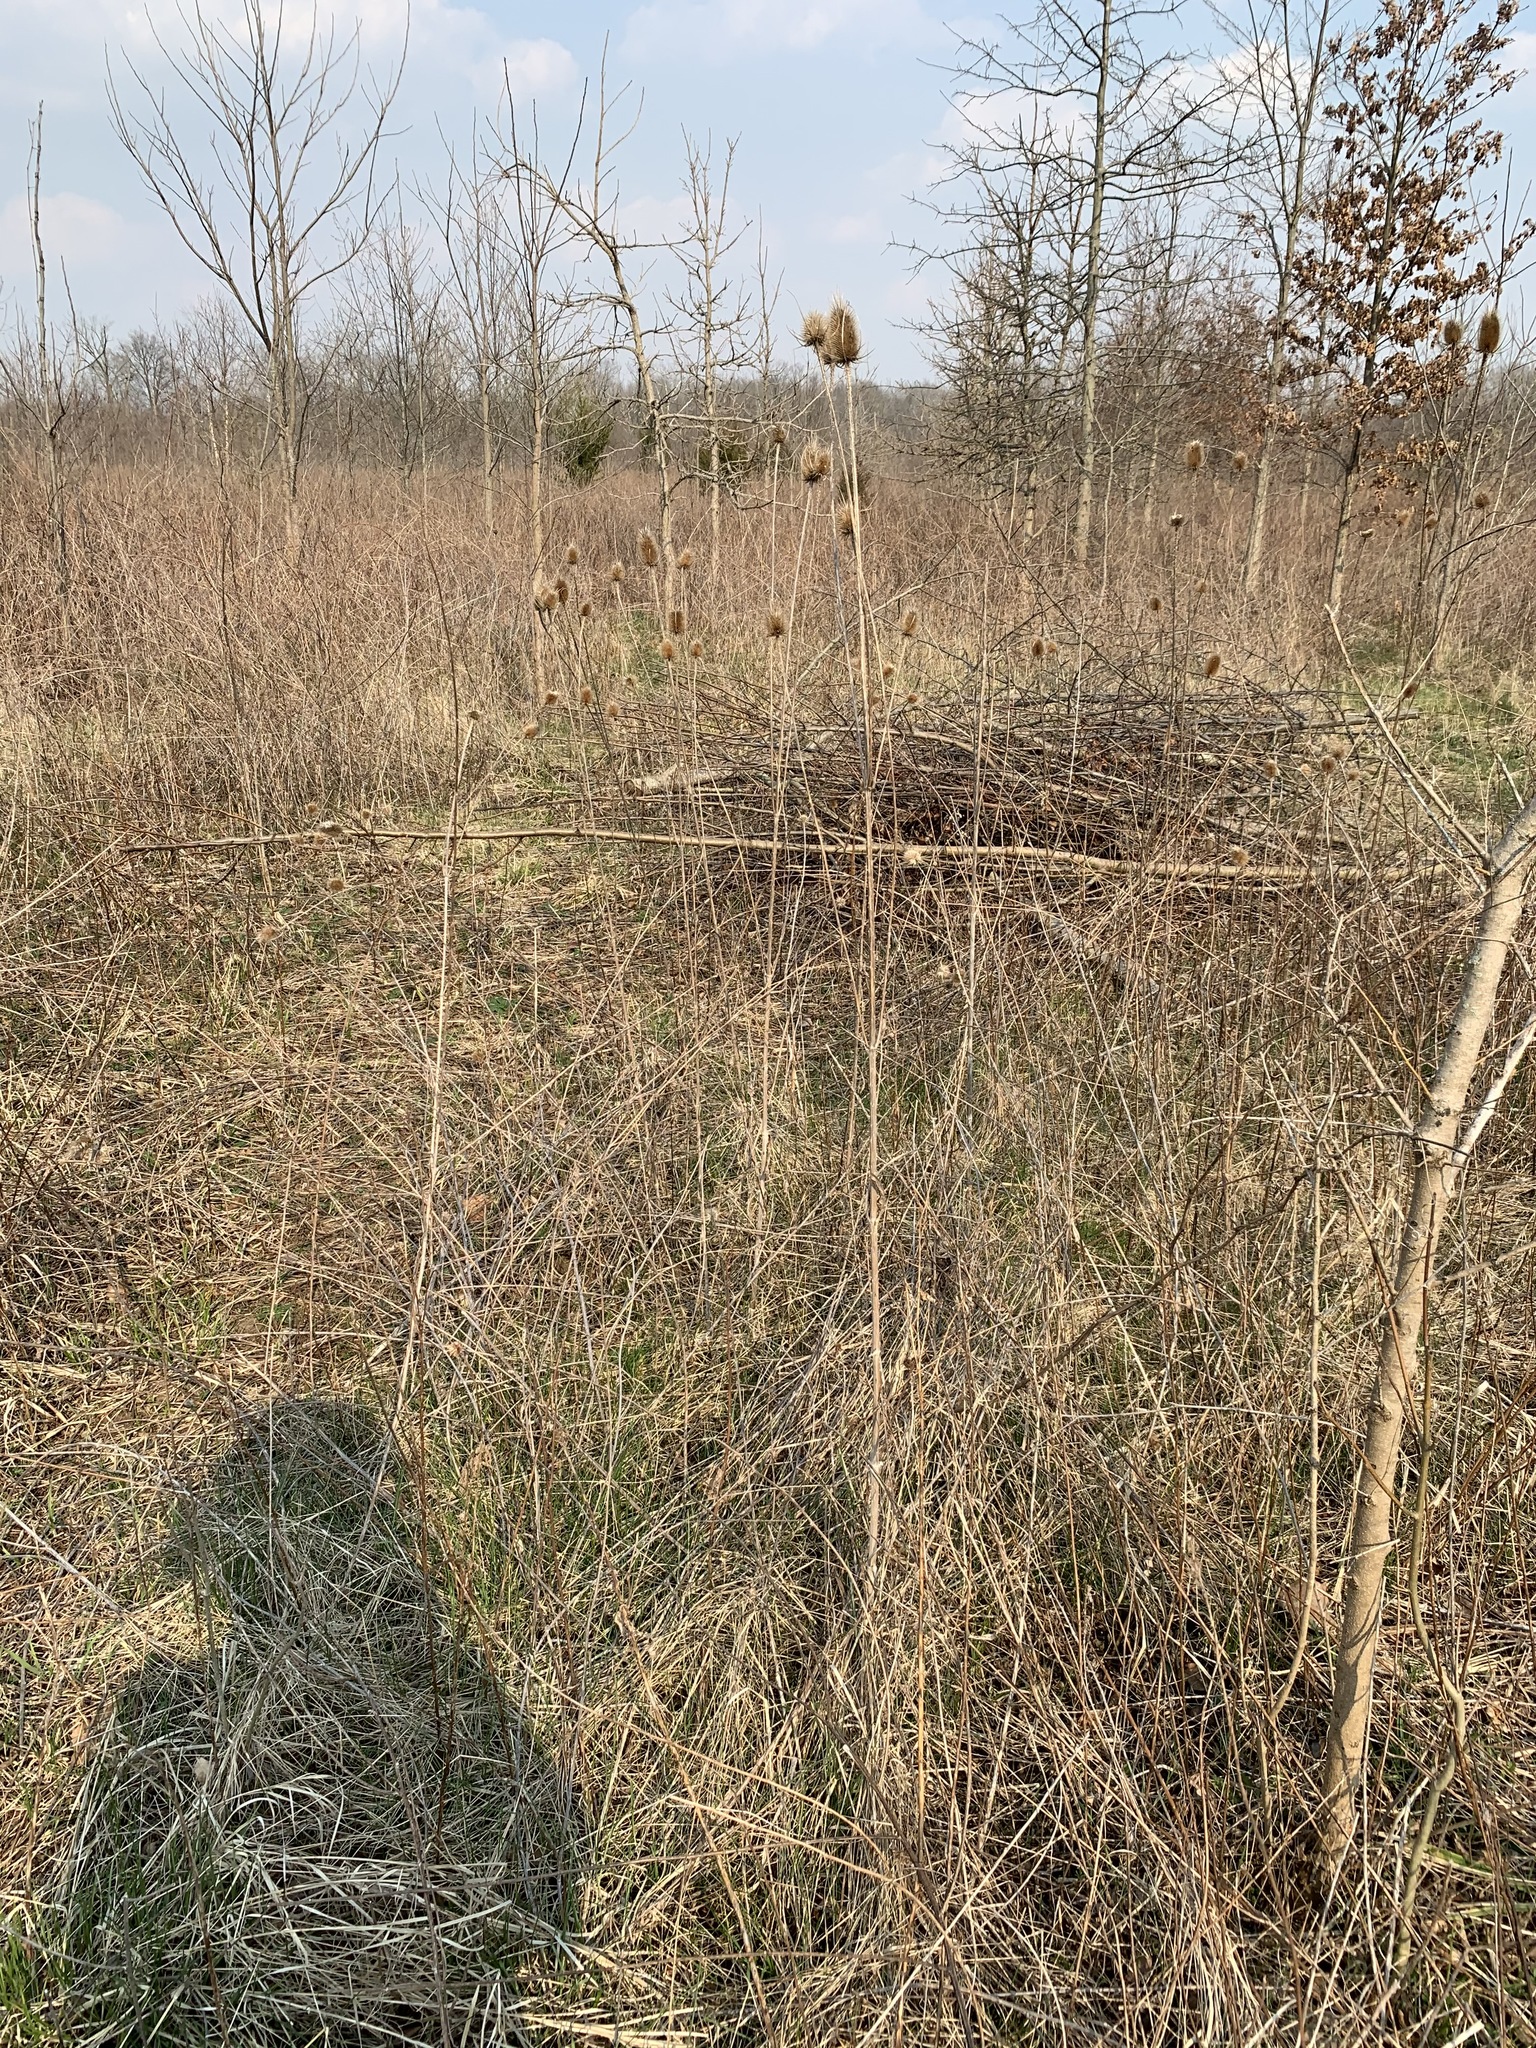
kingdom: Plantae
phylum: Tracheophyta
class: Magnoliopsida
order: Dipsacales
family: Caprifoliaceae
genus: Dipsacus
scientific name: Dipsacus fullonum
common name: Teasel
